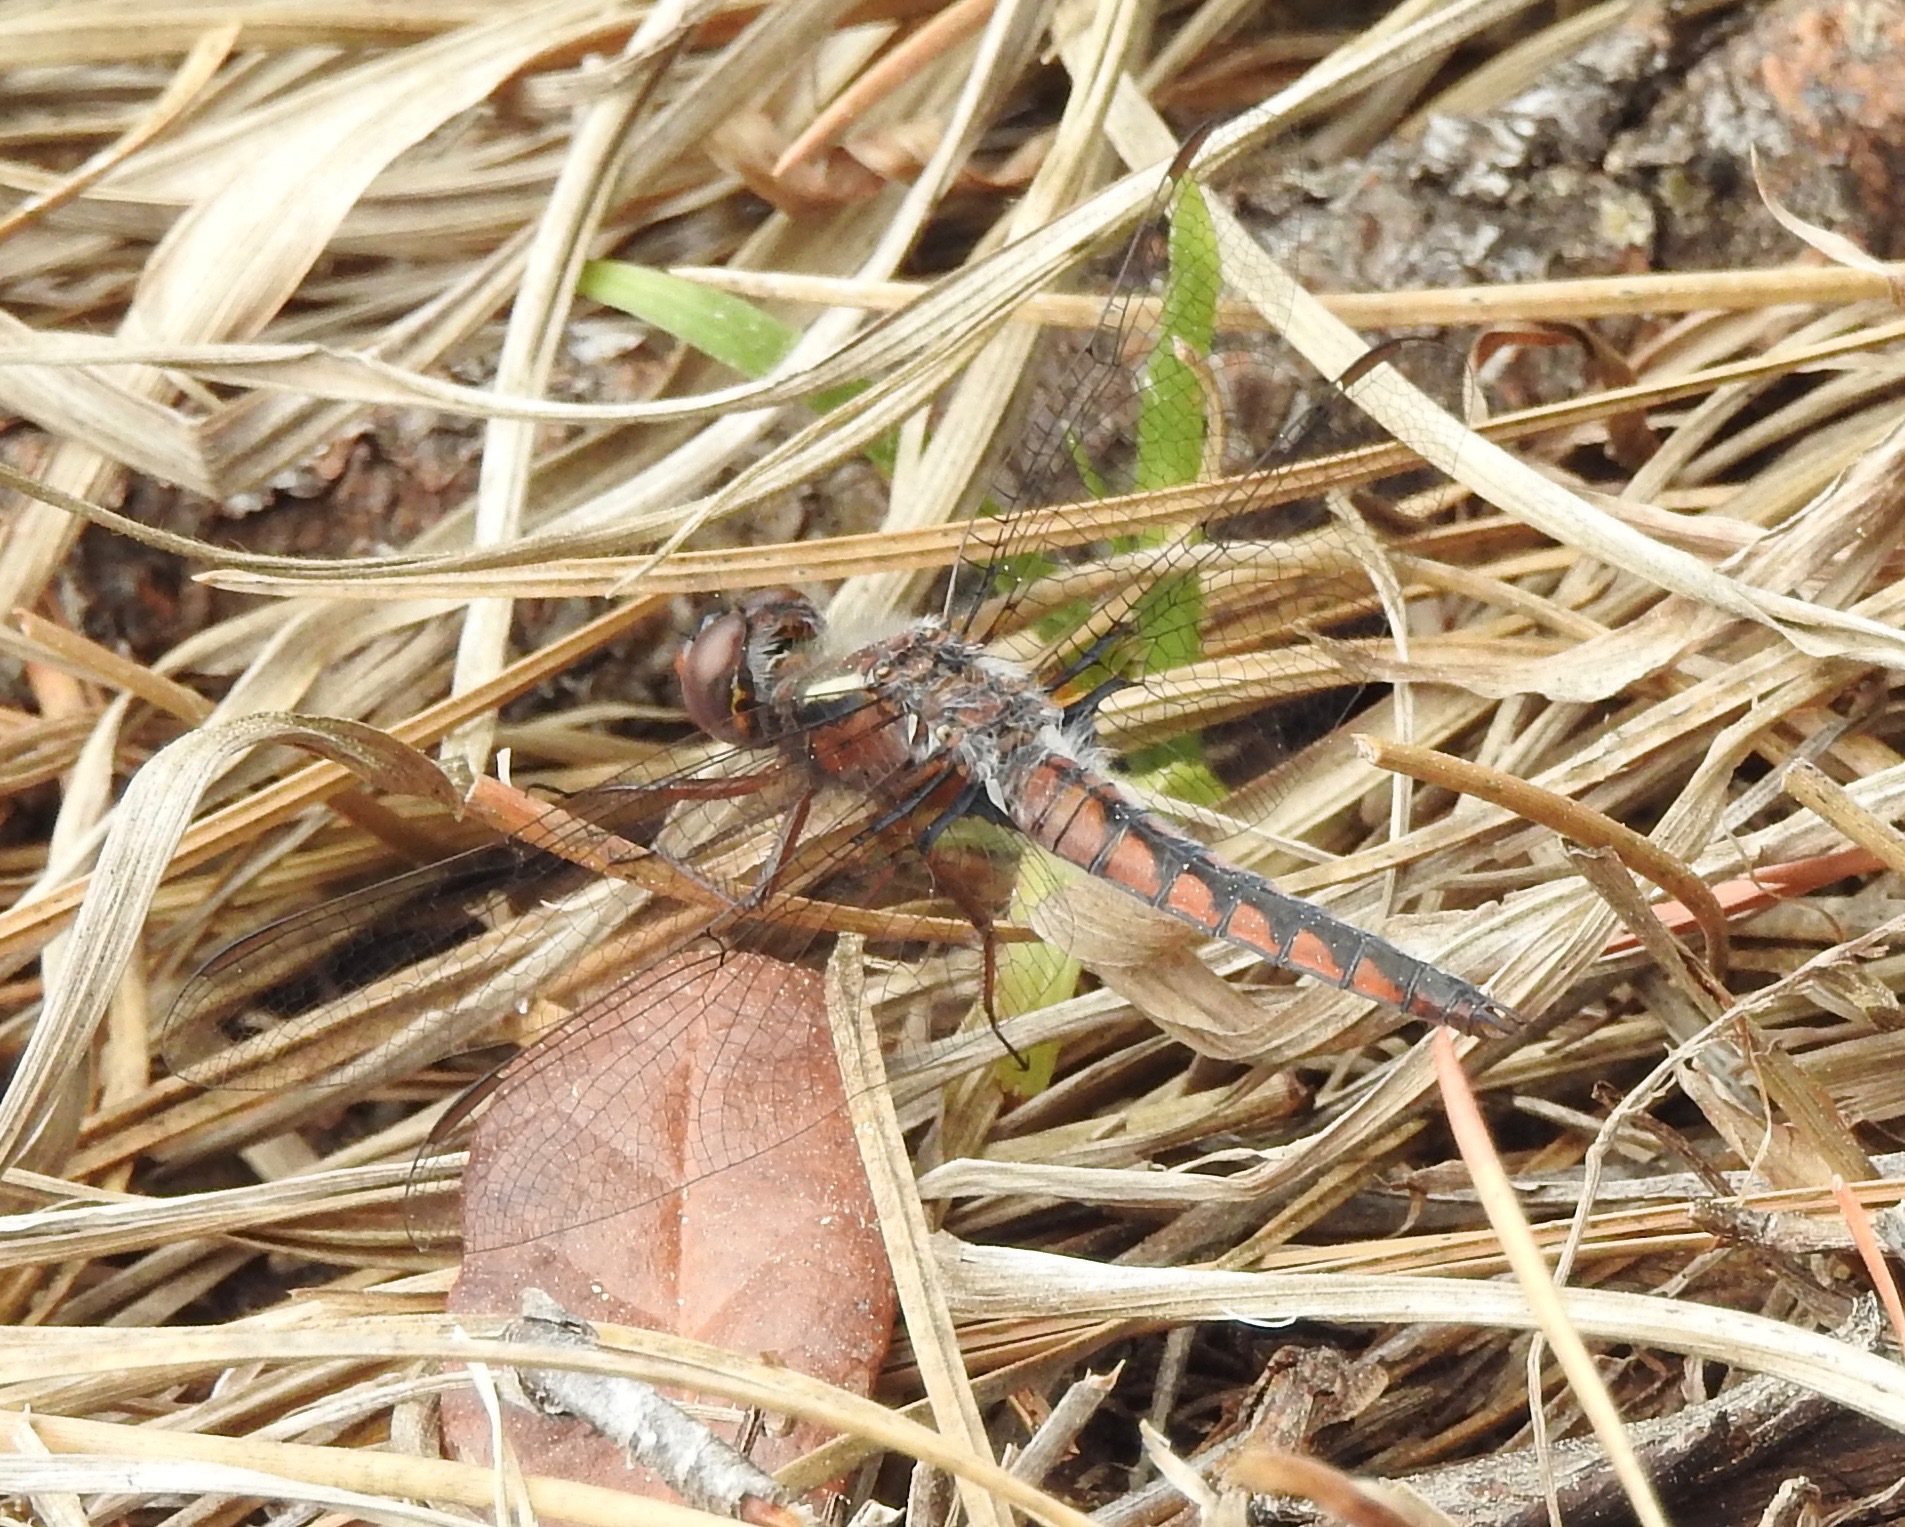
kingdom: Animalia
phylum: Arthropoda
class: Insecta
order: Odonata
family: Libellulidae
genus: Ladona
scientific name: Ladona deplanata
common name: Blue corporal
